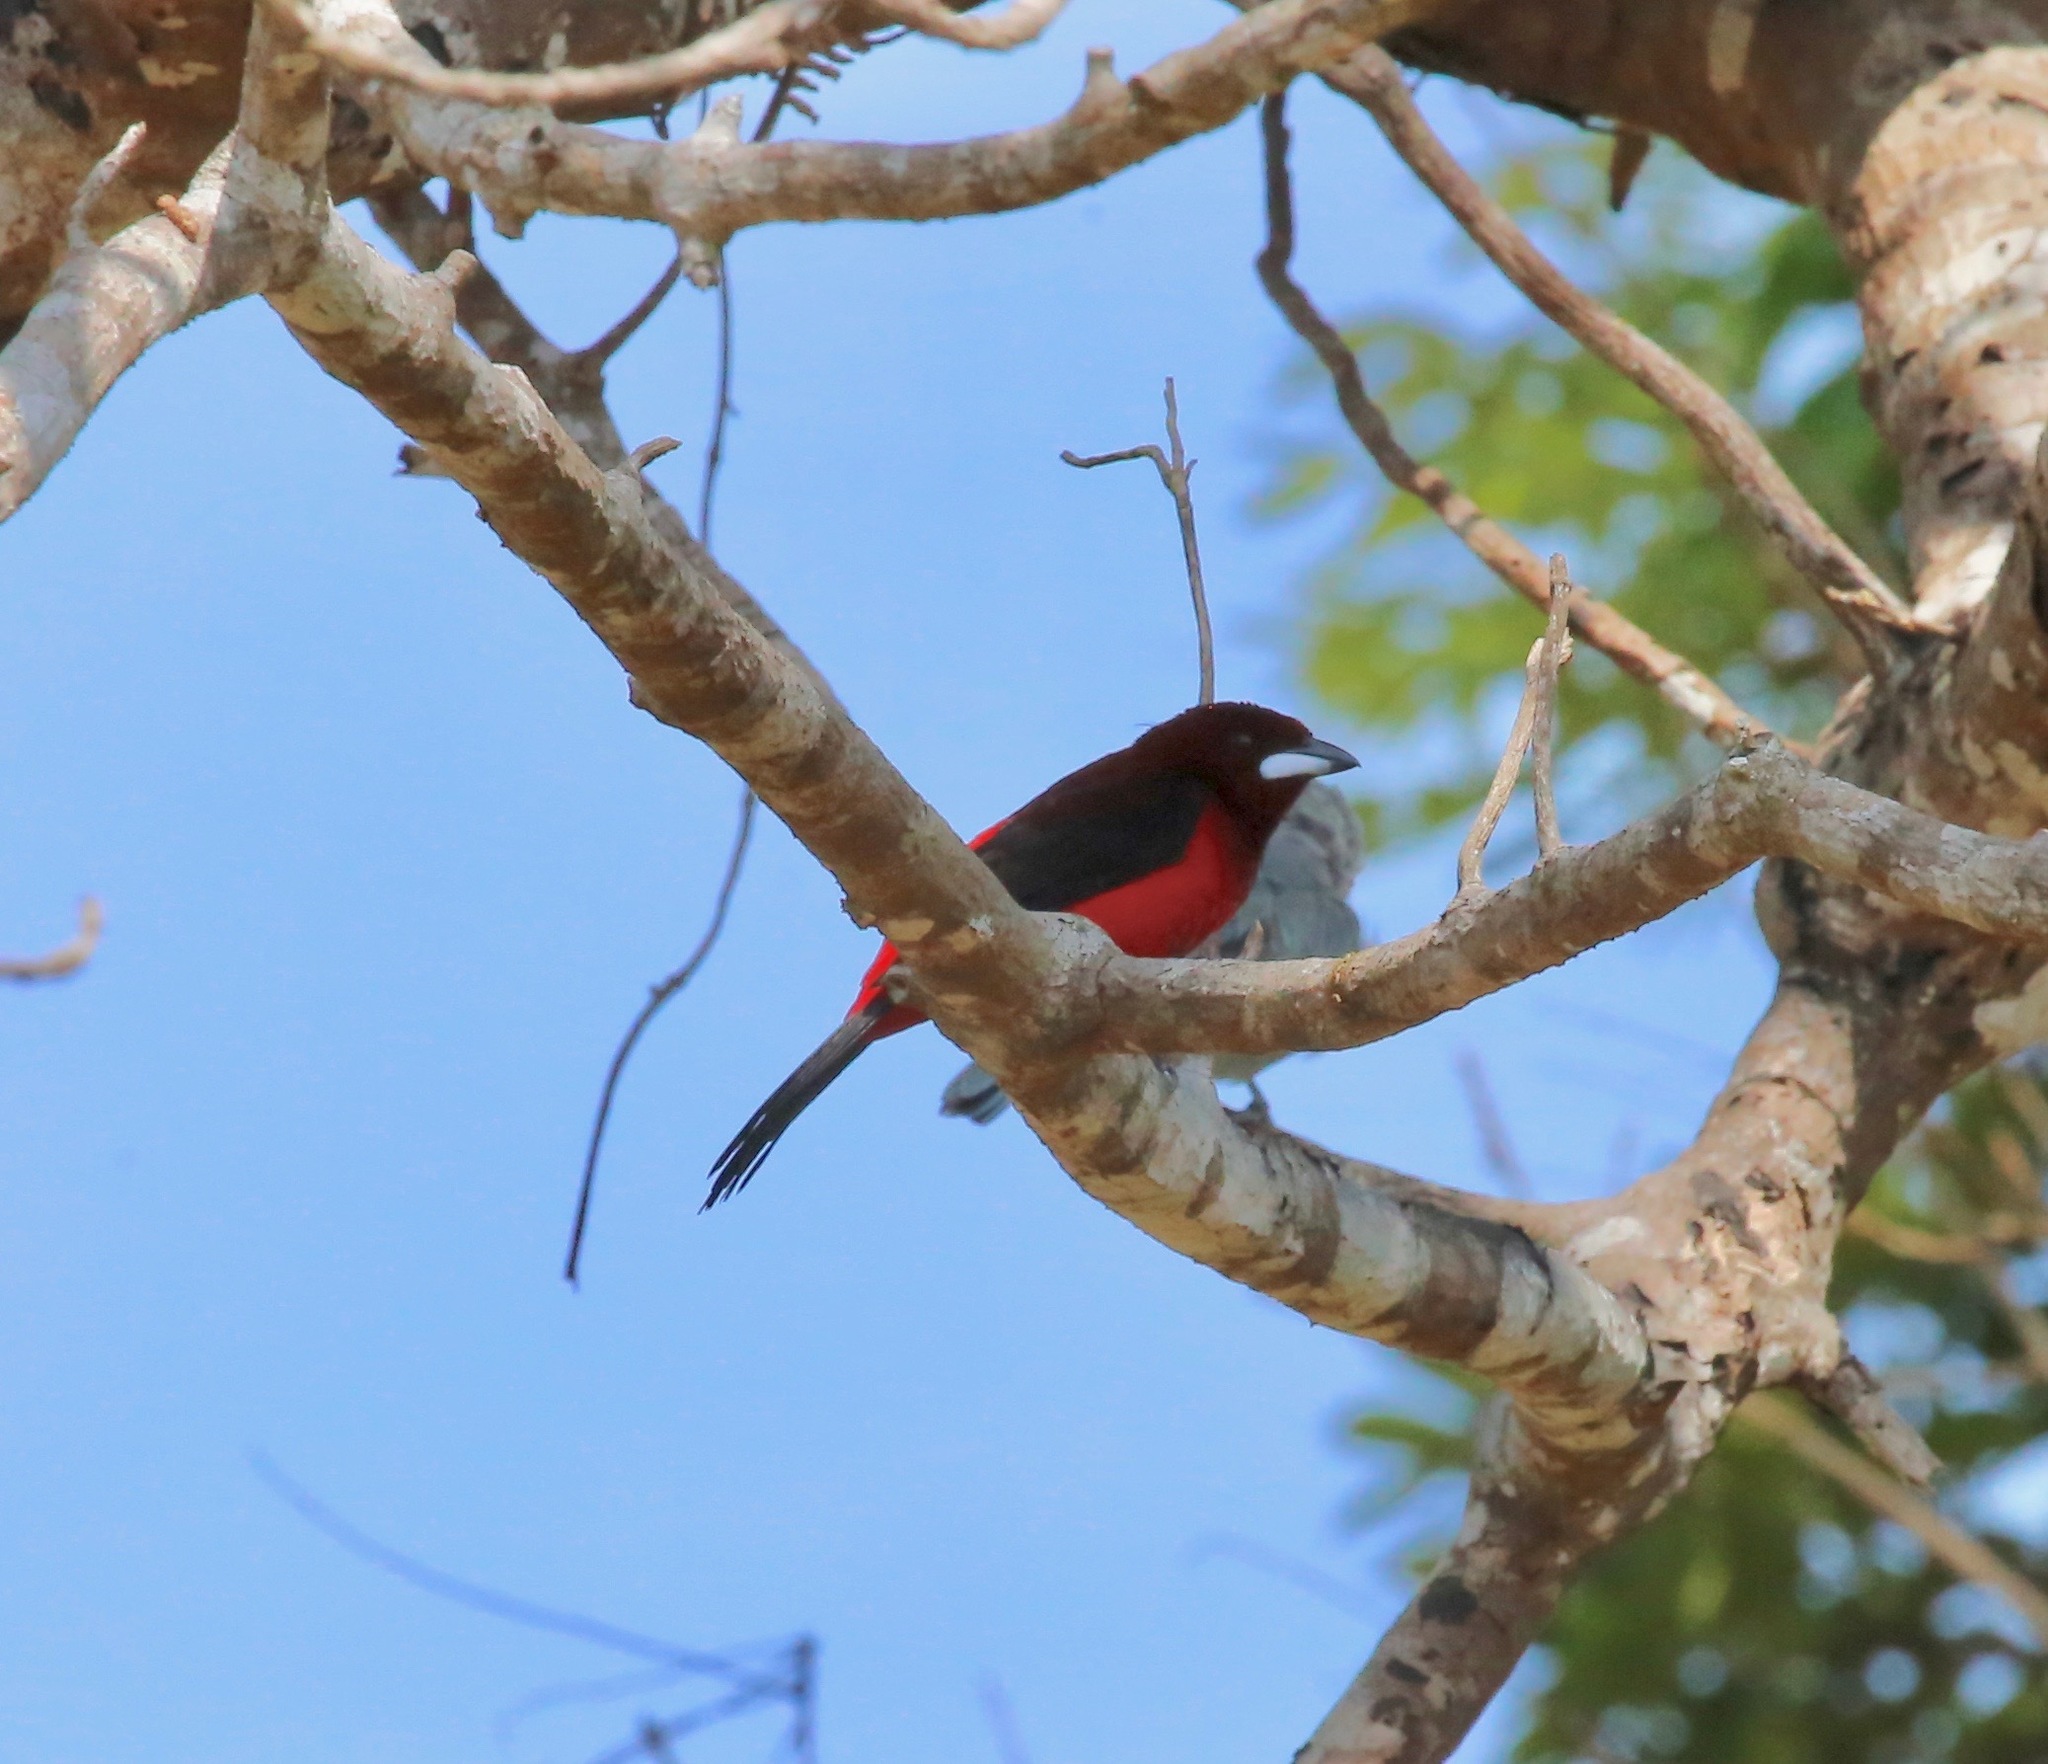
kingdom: Animalia
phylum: Chordata
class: Aves
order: Passeriformes
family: Thraupidae
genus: Ramphocelus
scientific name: Ramphocelus dimidiatus
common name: Crimson-backed tanager
